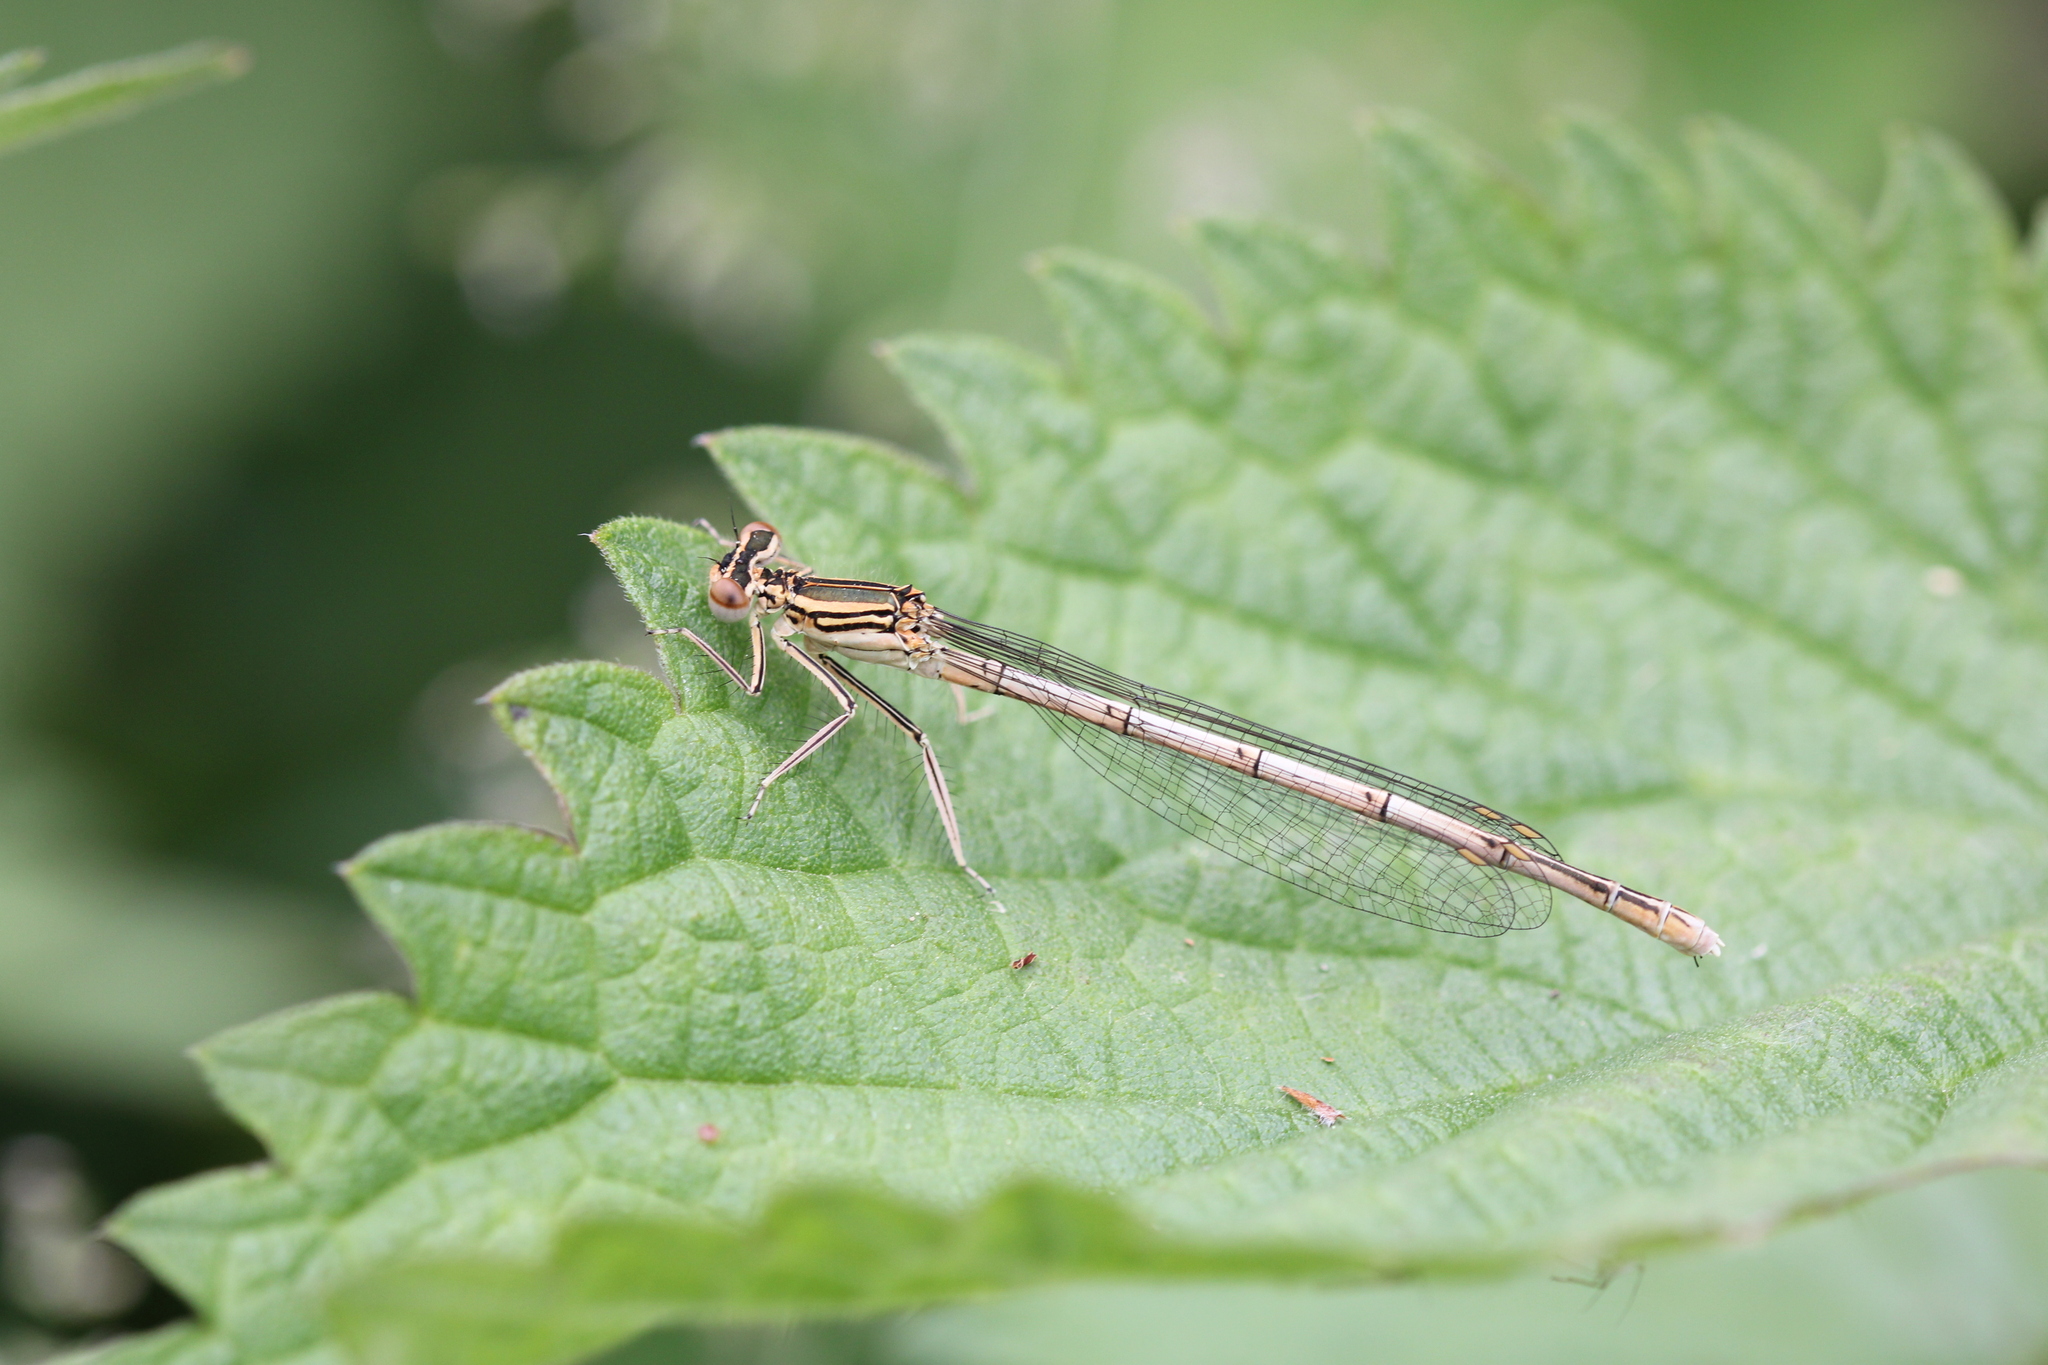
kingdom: Animalia
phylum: Arthropoda
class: Insecta
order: Odonata
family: Platycnemididae
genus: Platycnemis
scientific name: Platycnemis pennipes
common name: White-legged damselfly
